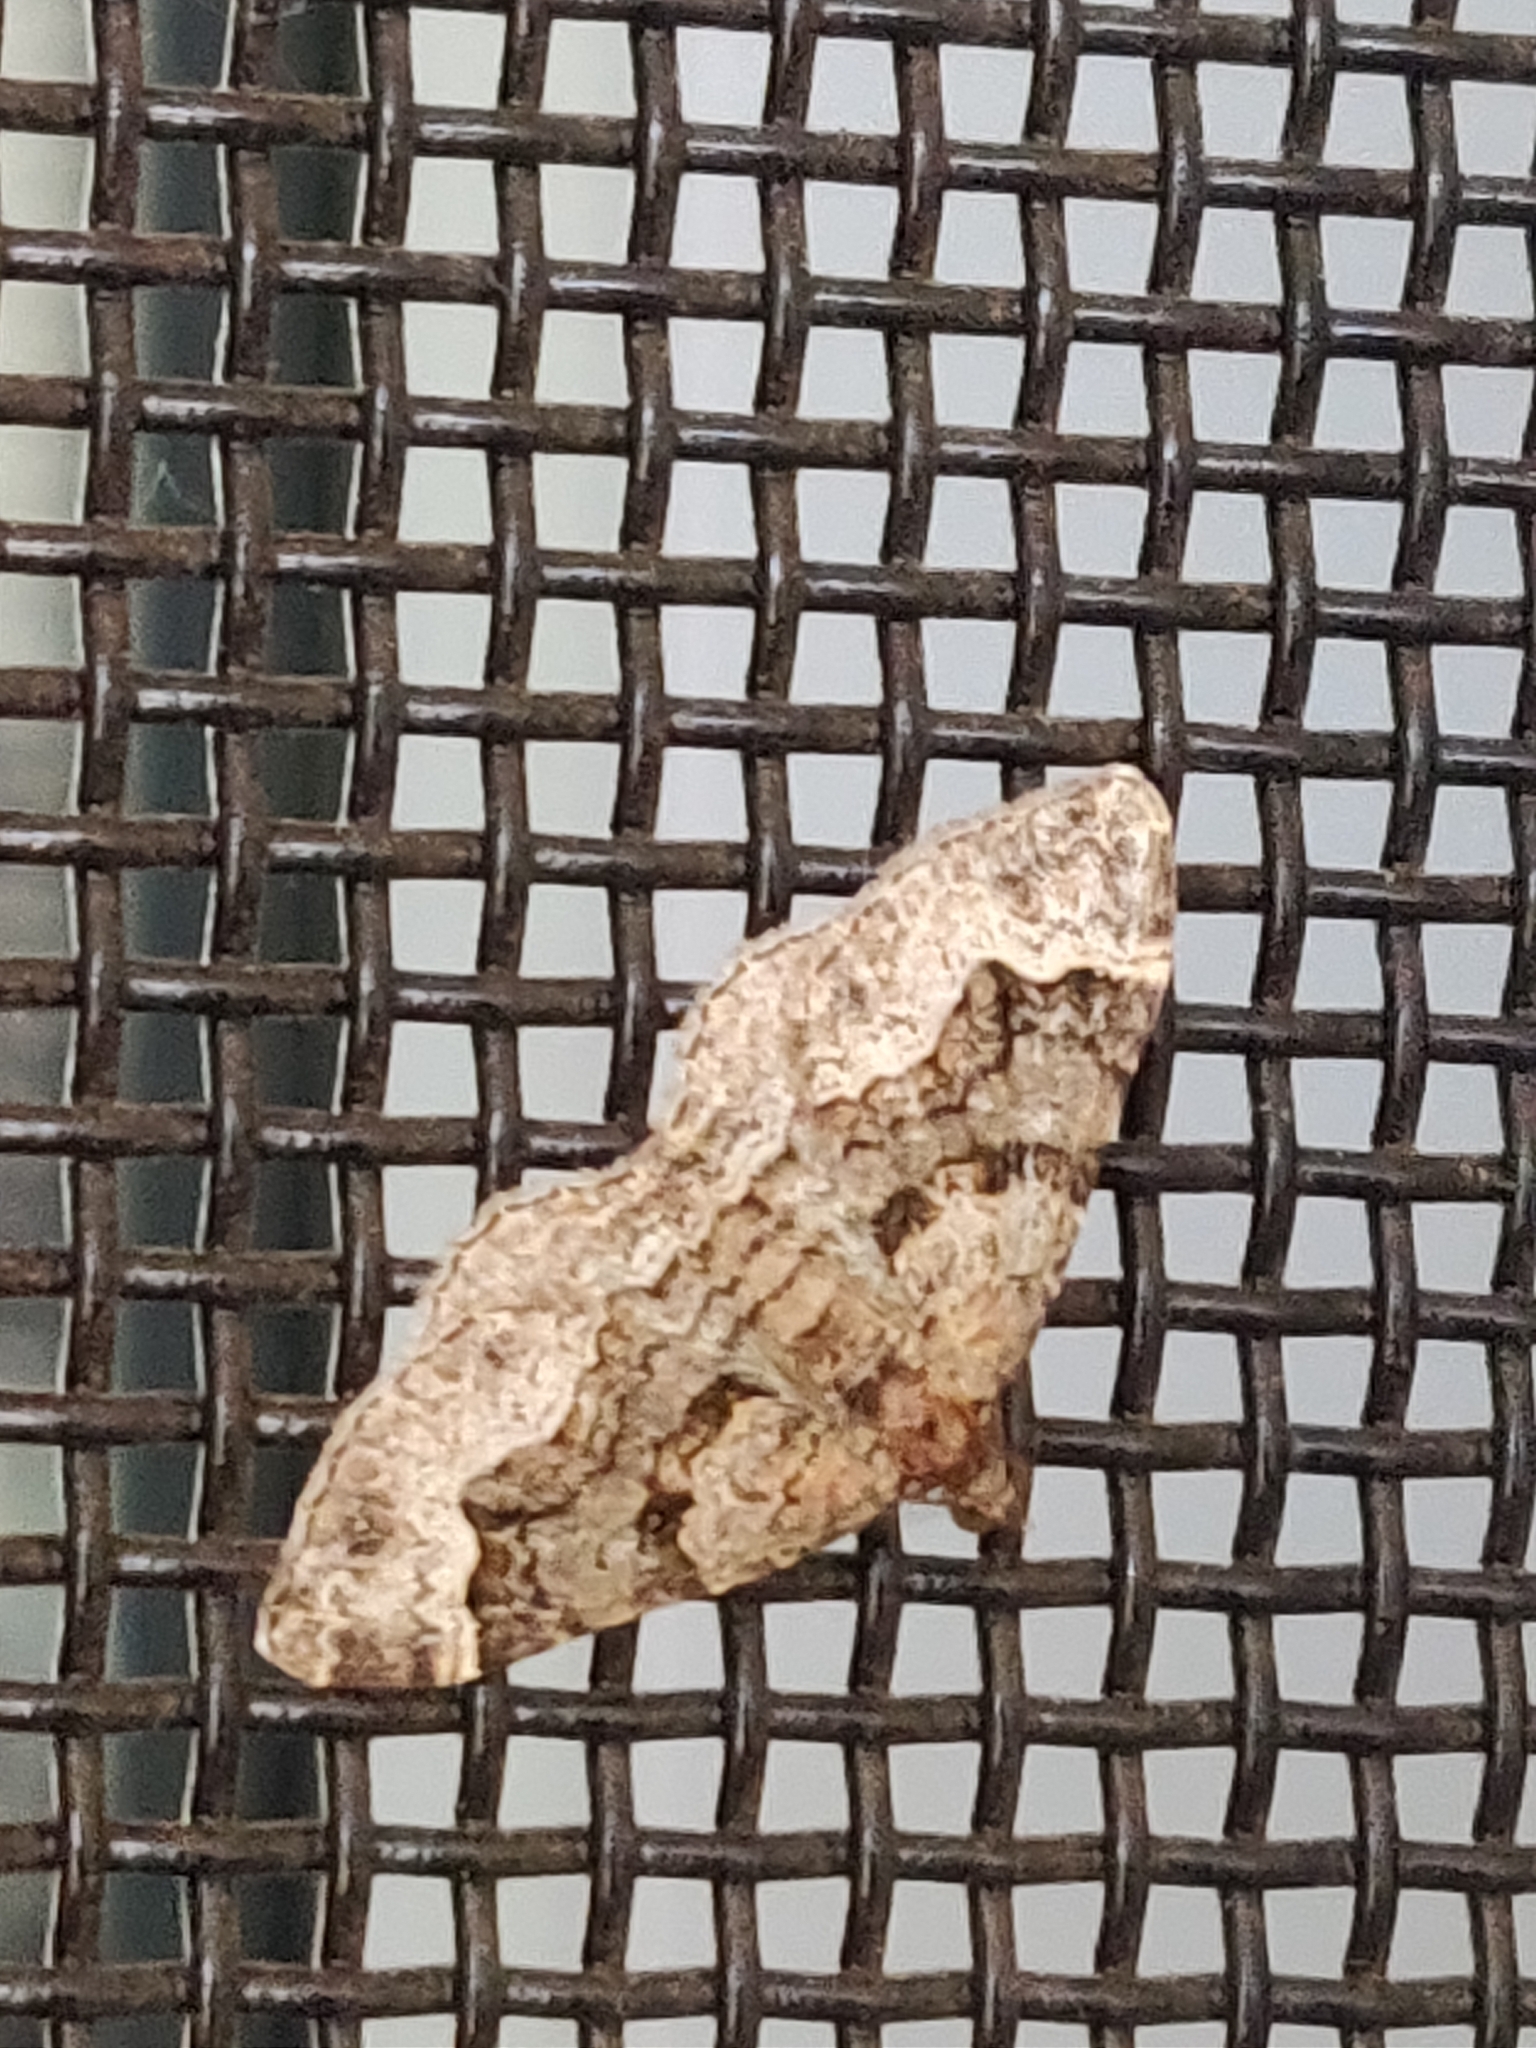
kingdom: Animalia
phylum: Arthropoda
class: Insecta
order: Lepidoptera
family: Geometridae
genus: Epyaxa
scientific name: Epyaxa subidaria
